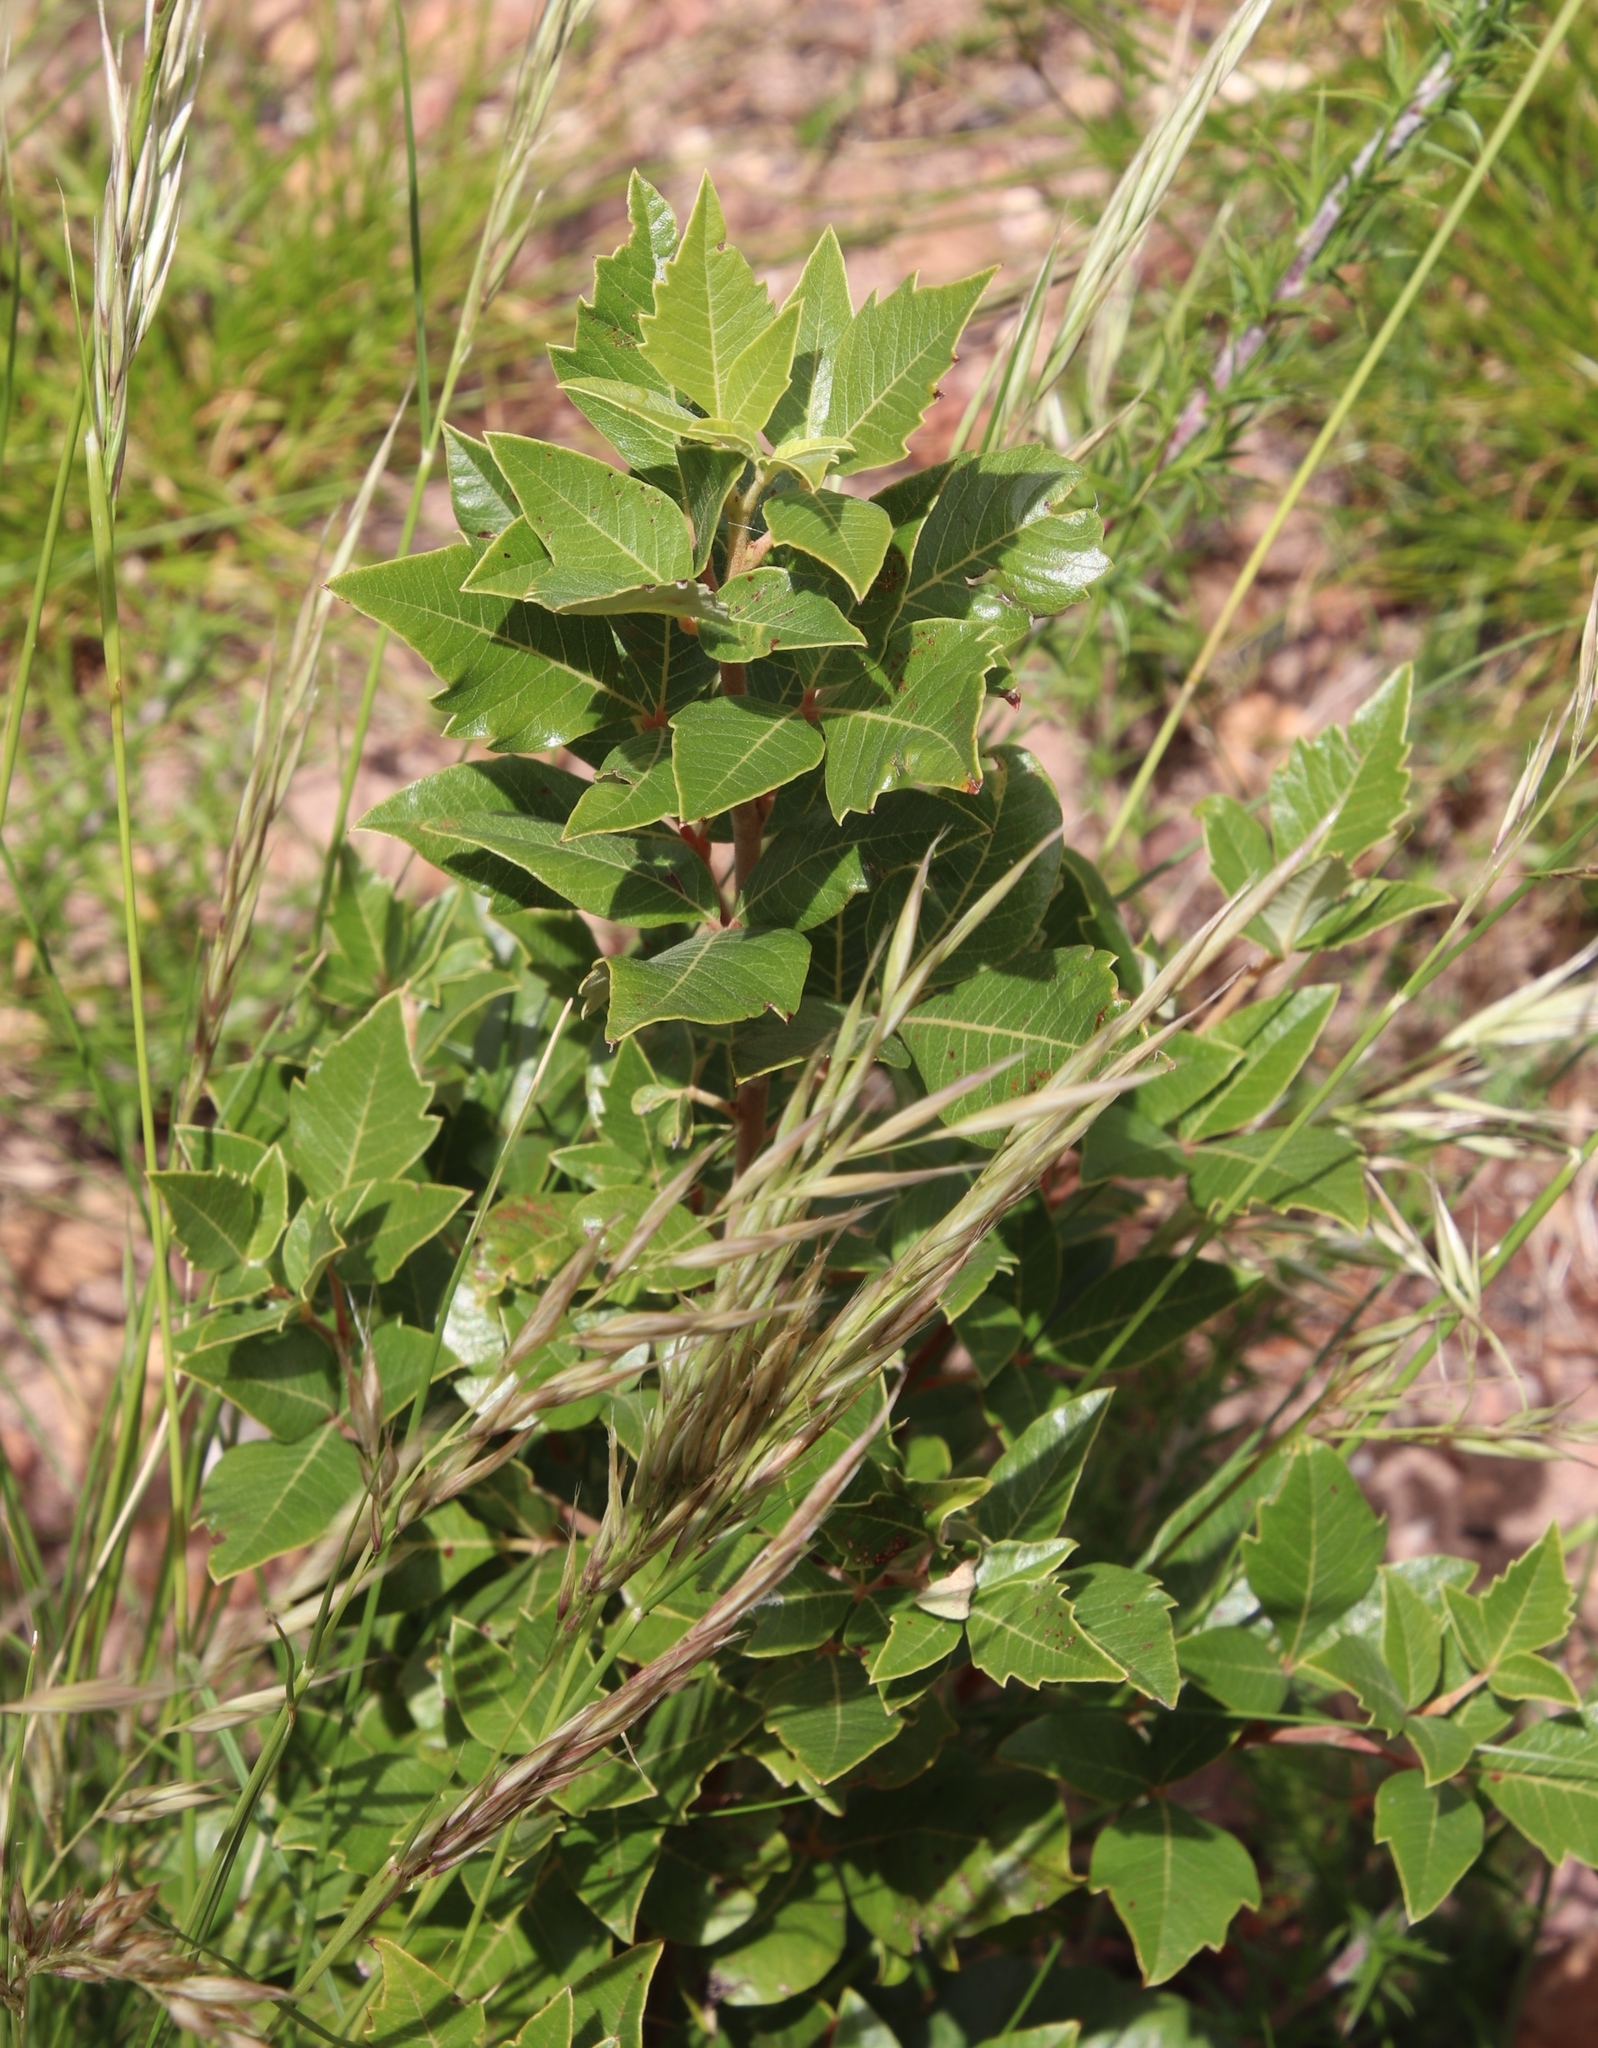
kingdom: Plantae
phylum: Tracheophyta
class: Magnoliopsida
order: Sapindales
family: Anacardiaceae
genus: Searsia
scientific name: Searsia tomentosa
